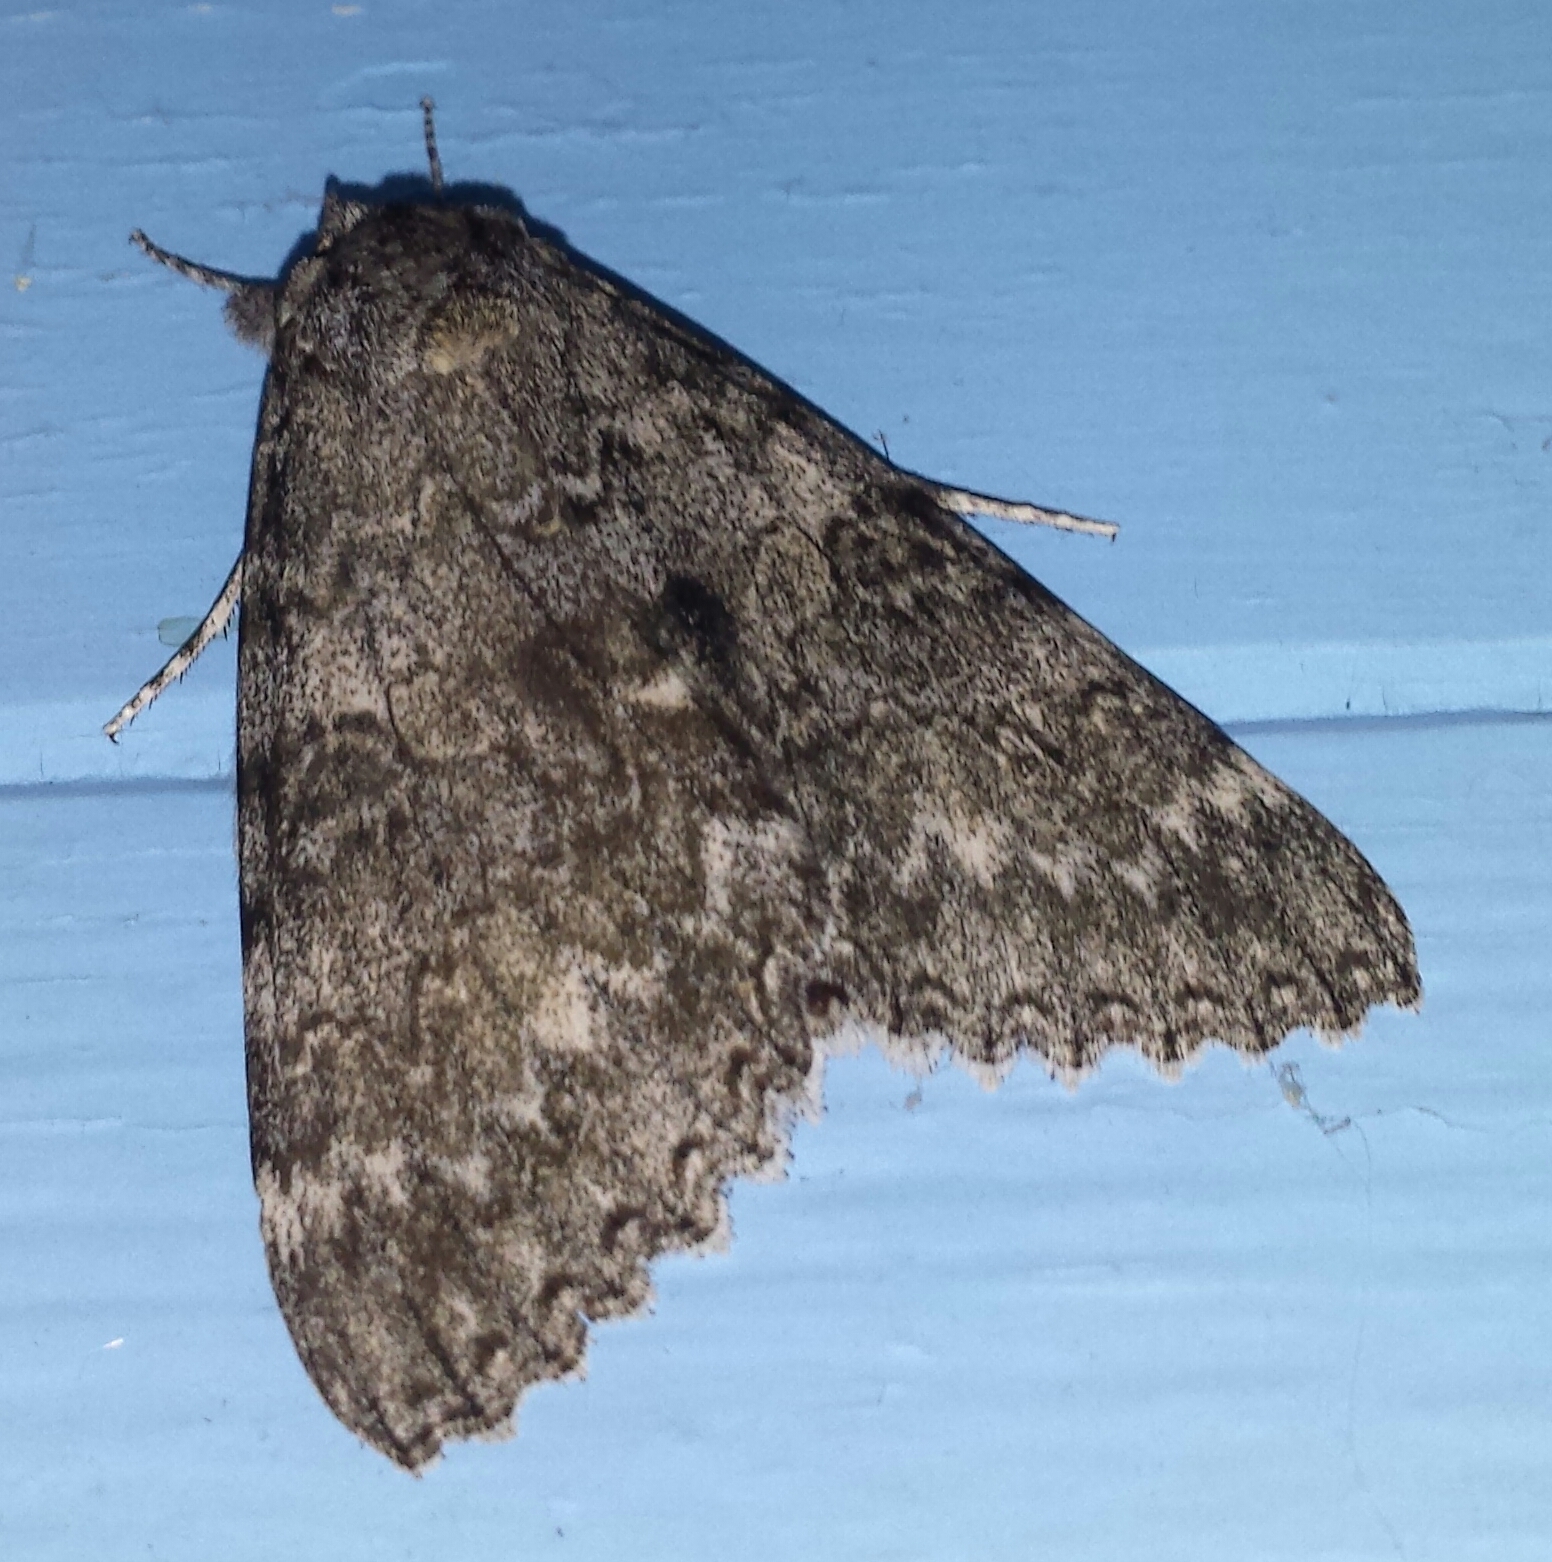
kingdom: Animalia
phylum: Arthropoda
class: Insecta
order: Lepidoptera
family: Erebidae
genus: Catocala
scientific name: Catocala semirelicta
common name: Semirelict underwing moth
